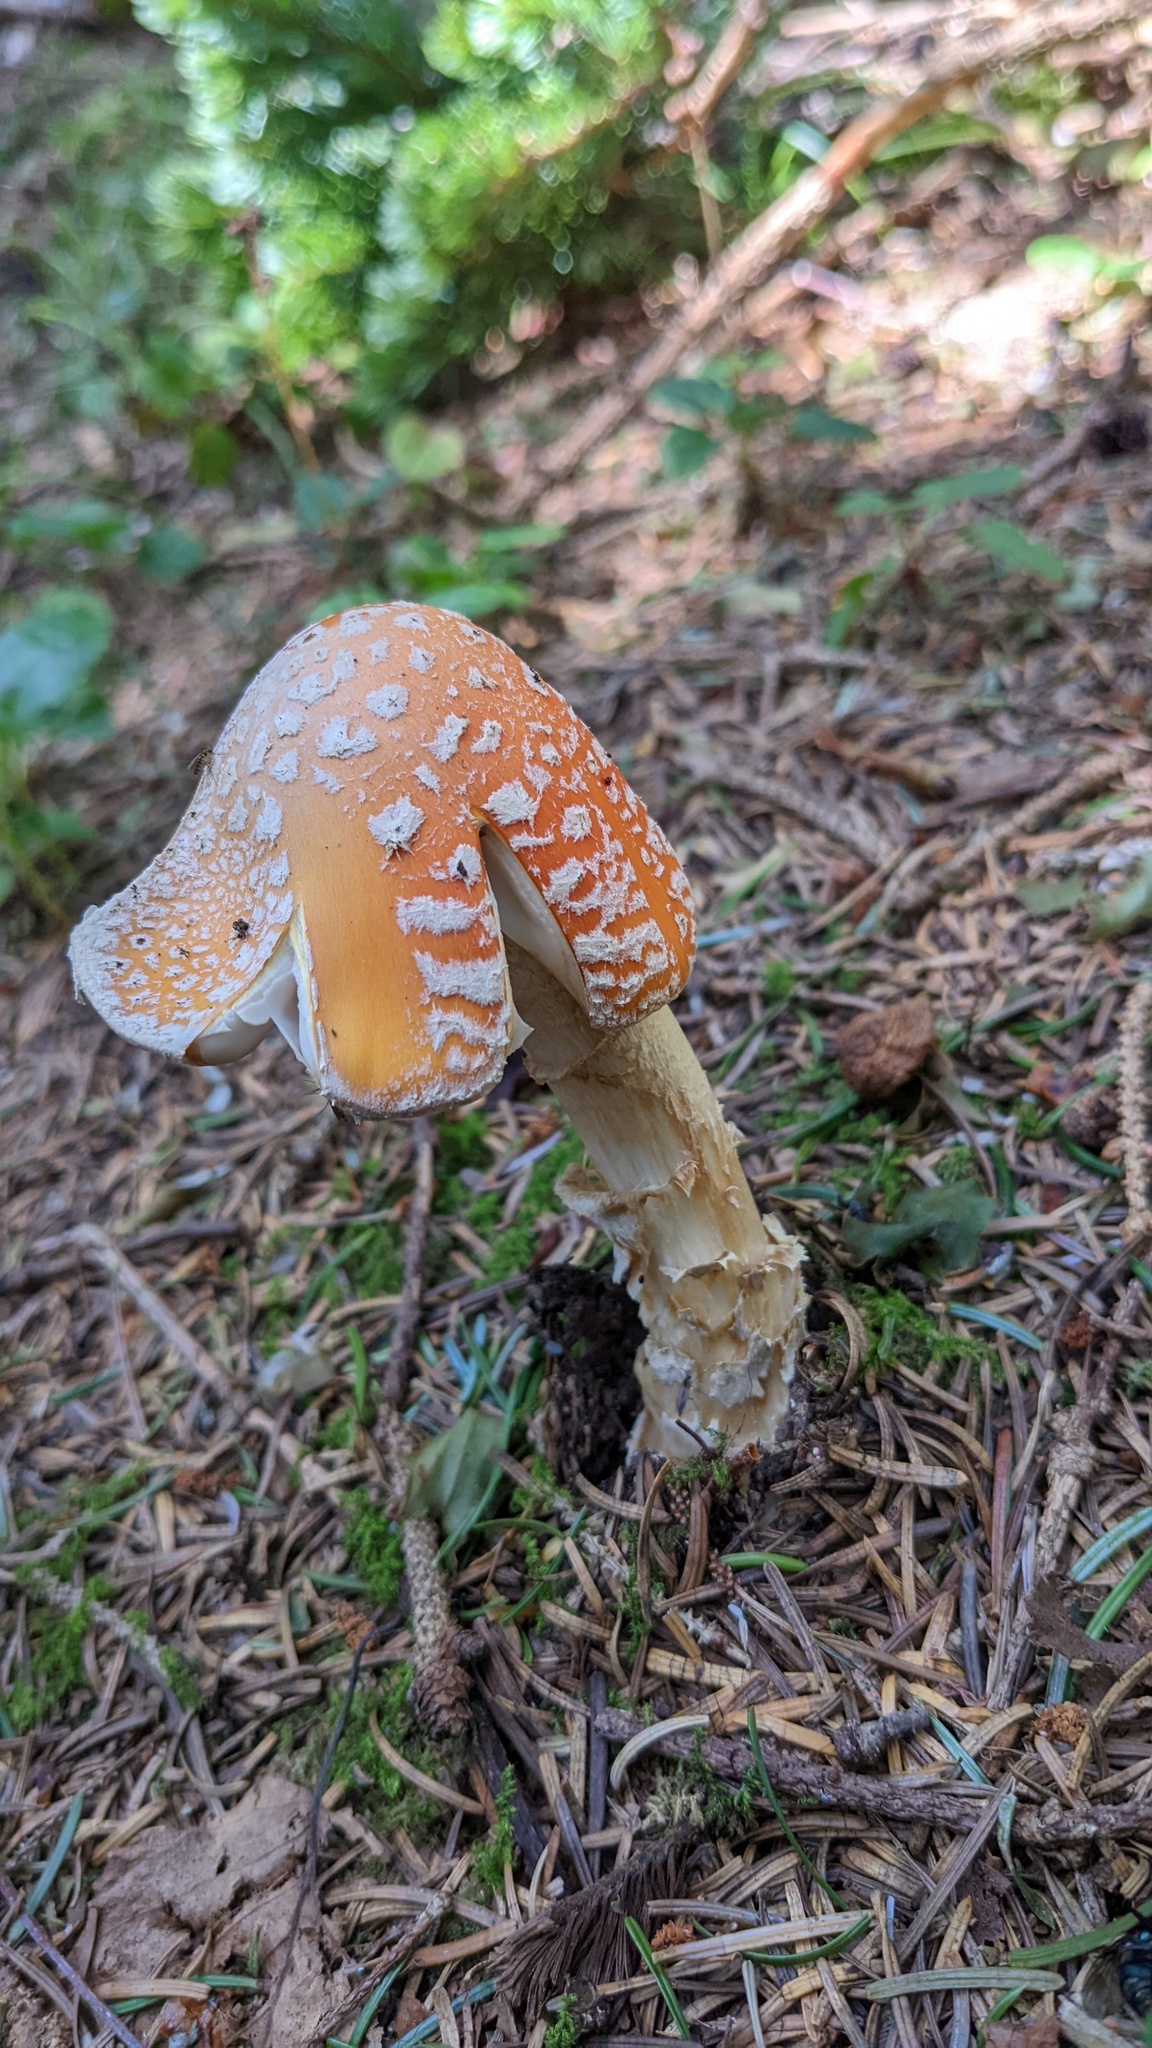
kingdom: Fungi
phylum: Basidiomycota
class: Agaricomycetes
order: Agaricales
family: Amanitaceae
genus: Amanita
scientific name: Amanita muscaria
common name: Fly agaric
